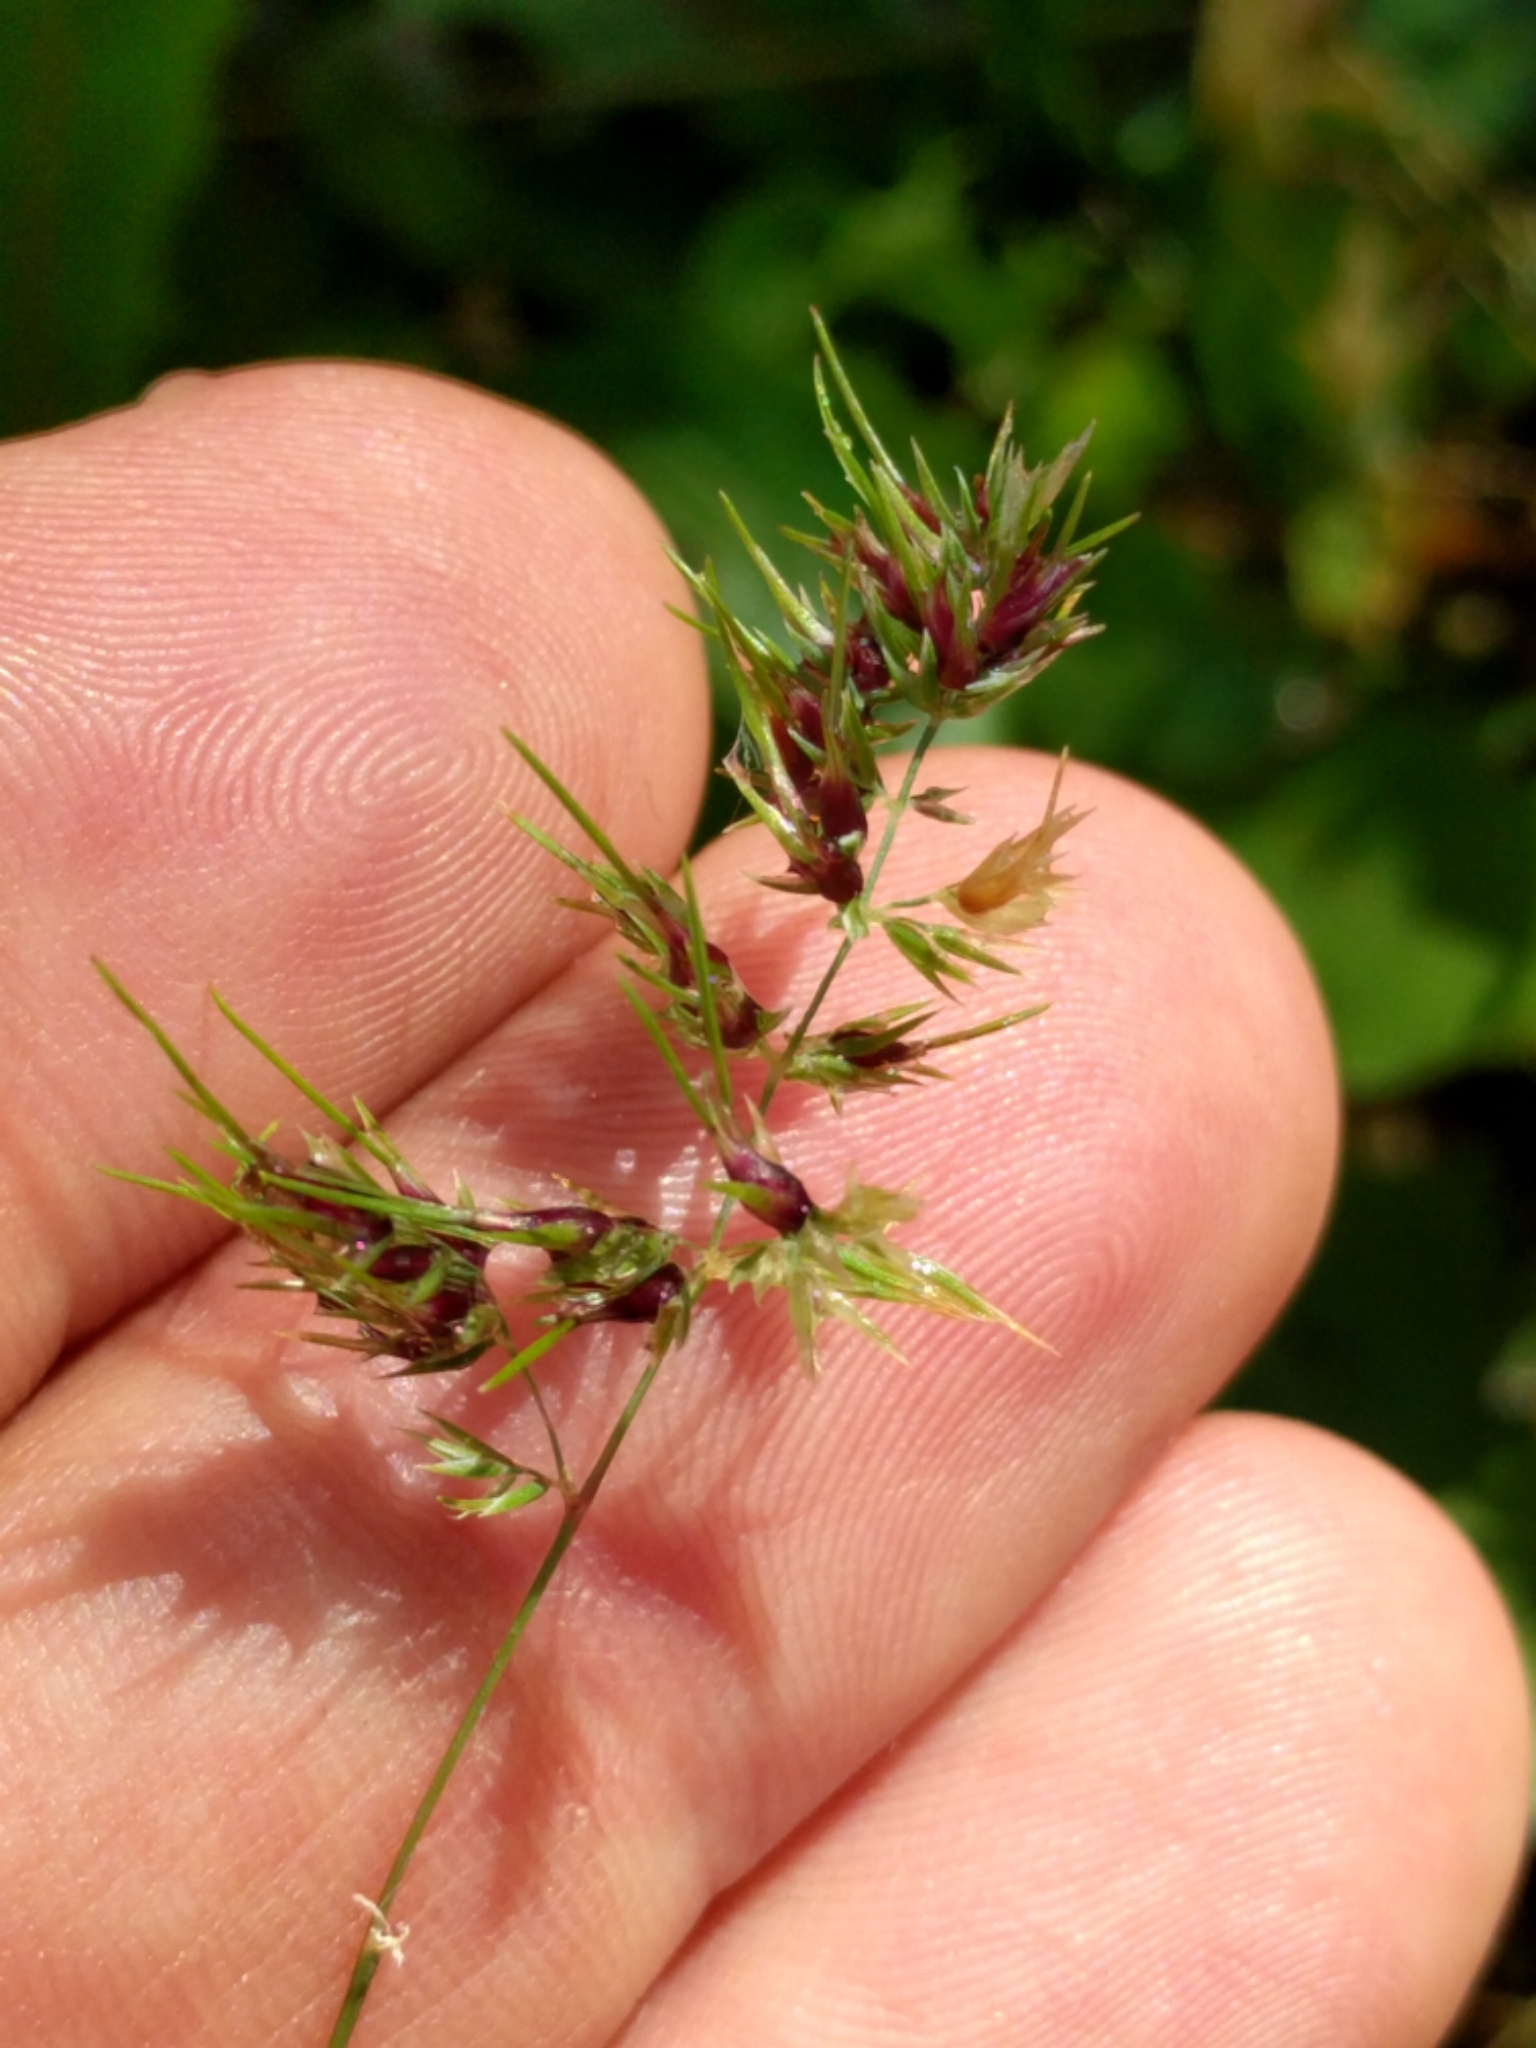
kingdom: Plantae
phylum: Tracheophyta
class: Liliopsida
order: Poales
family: Poaceae
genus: Poa
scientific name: Poa bulbosa
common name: Bulbous bluegrass
